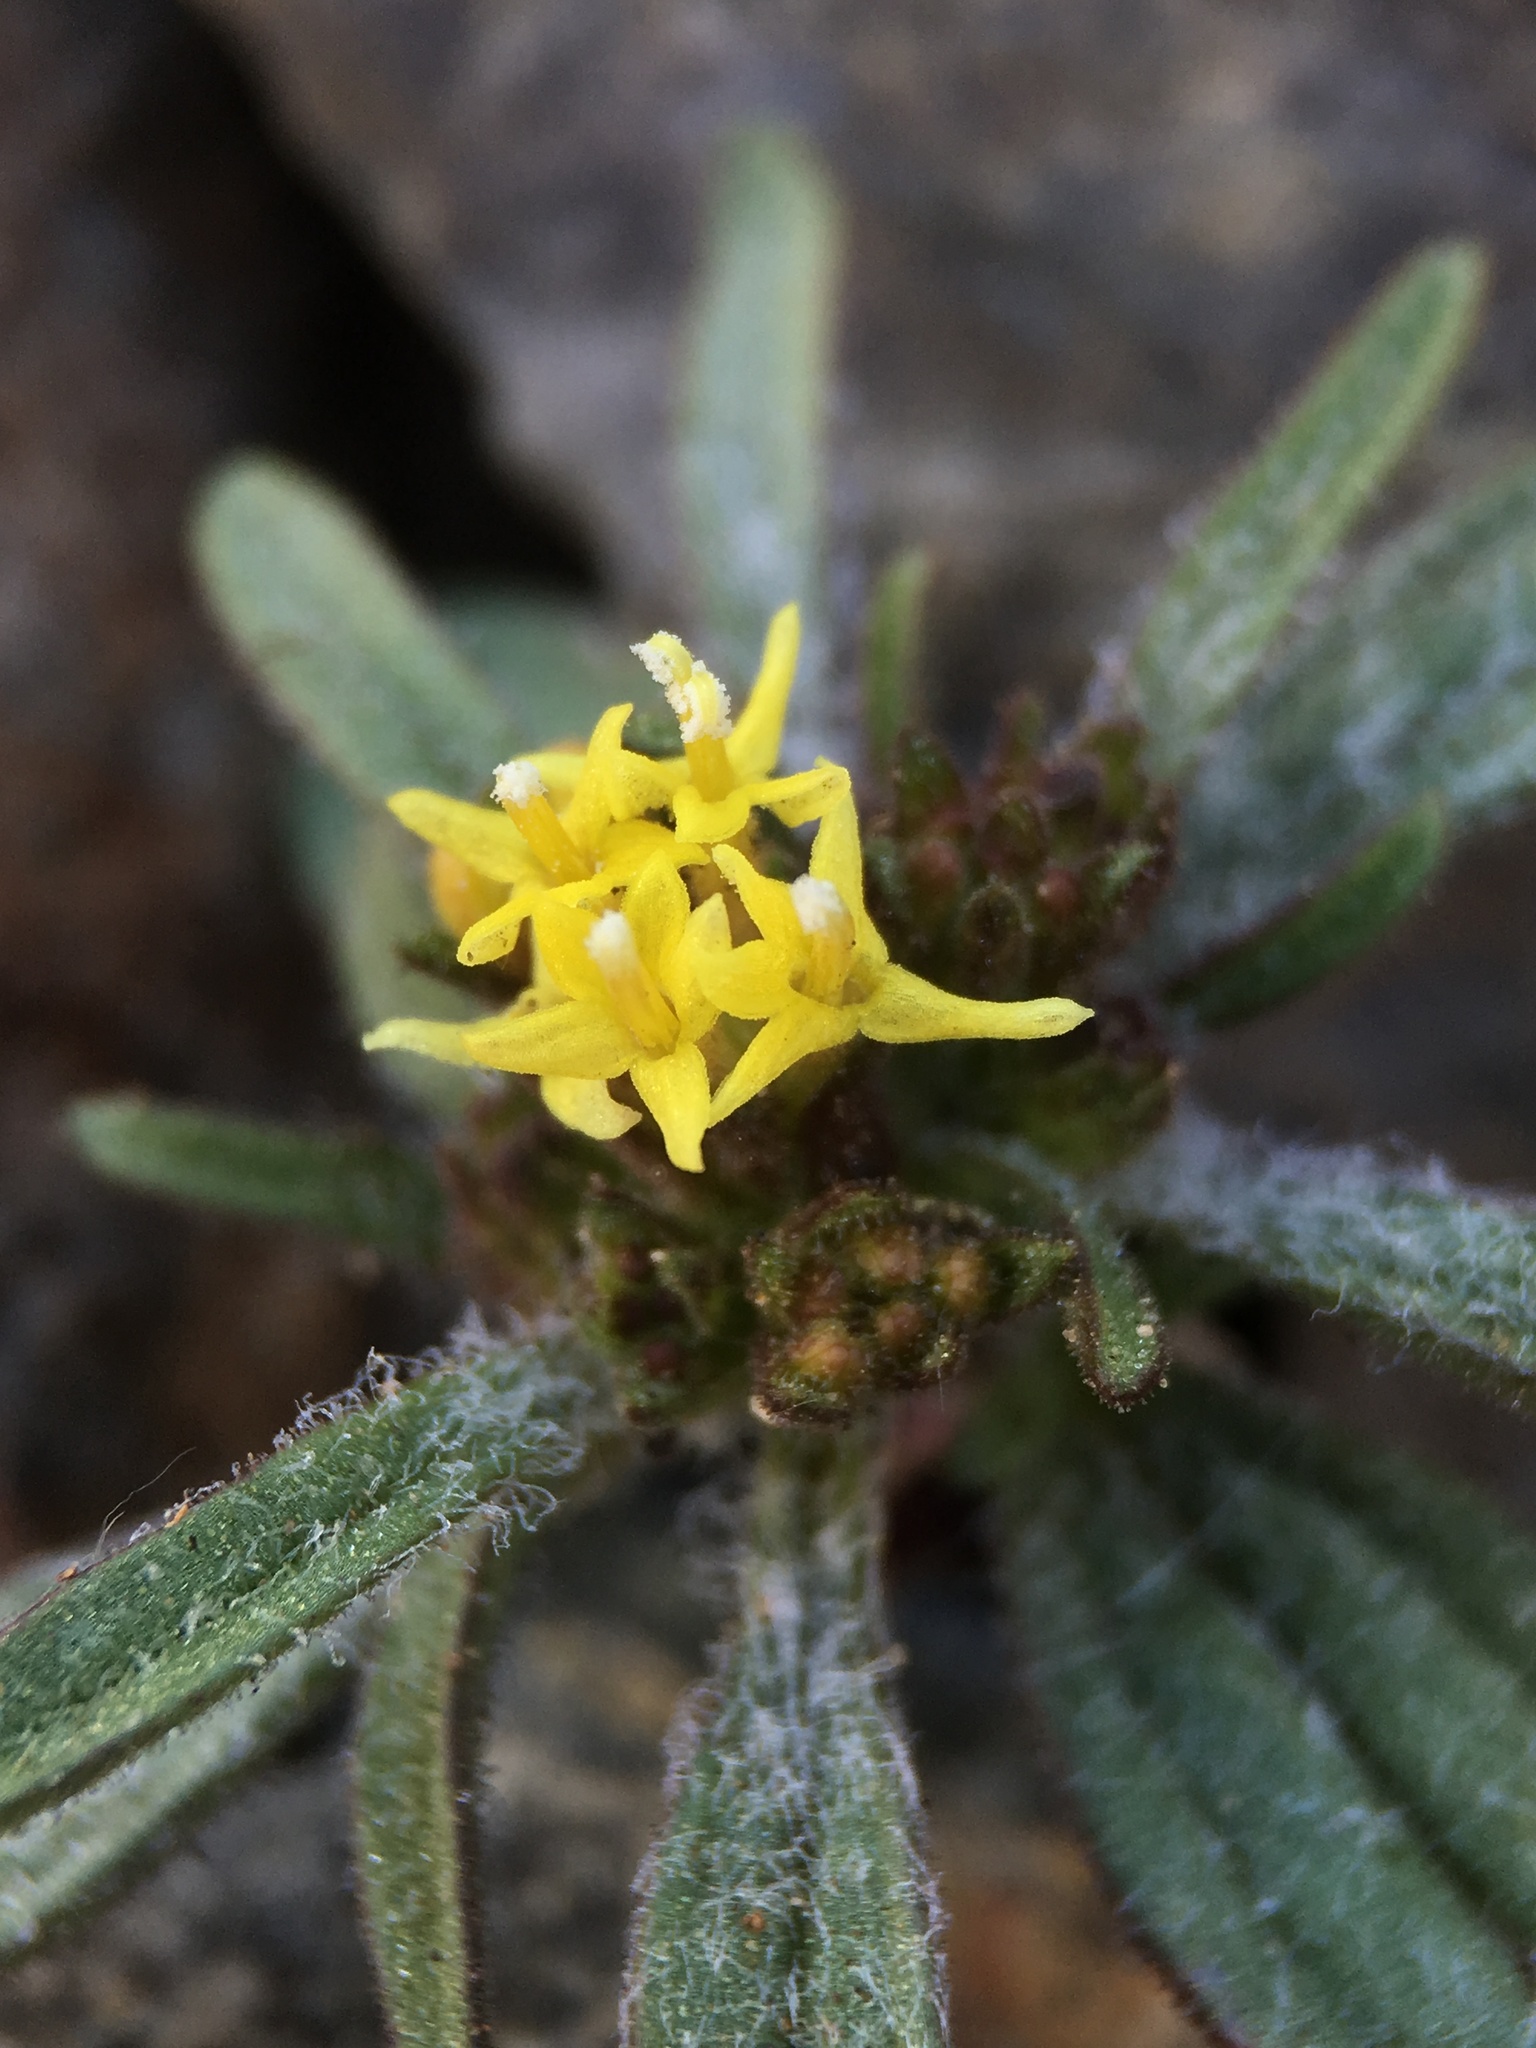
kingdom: Plantae
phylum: Tracheophyta
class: Magnoliopsida
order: Asterales
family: Asteraceae
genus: Orochaenactis
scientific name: Orochaenactis thysanocarpha
